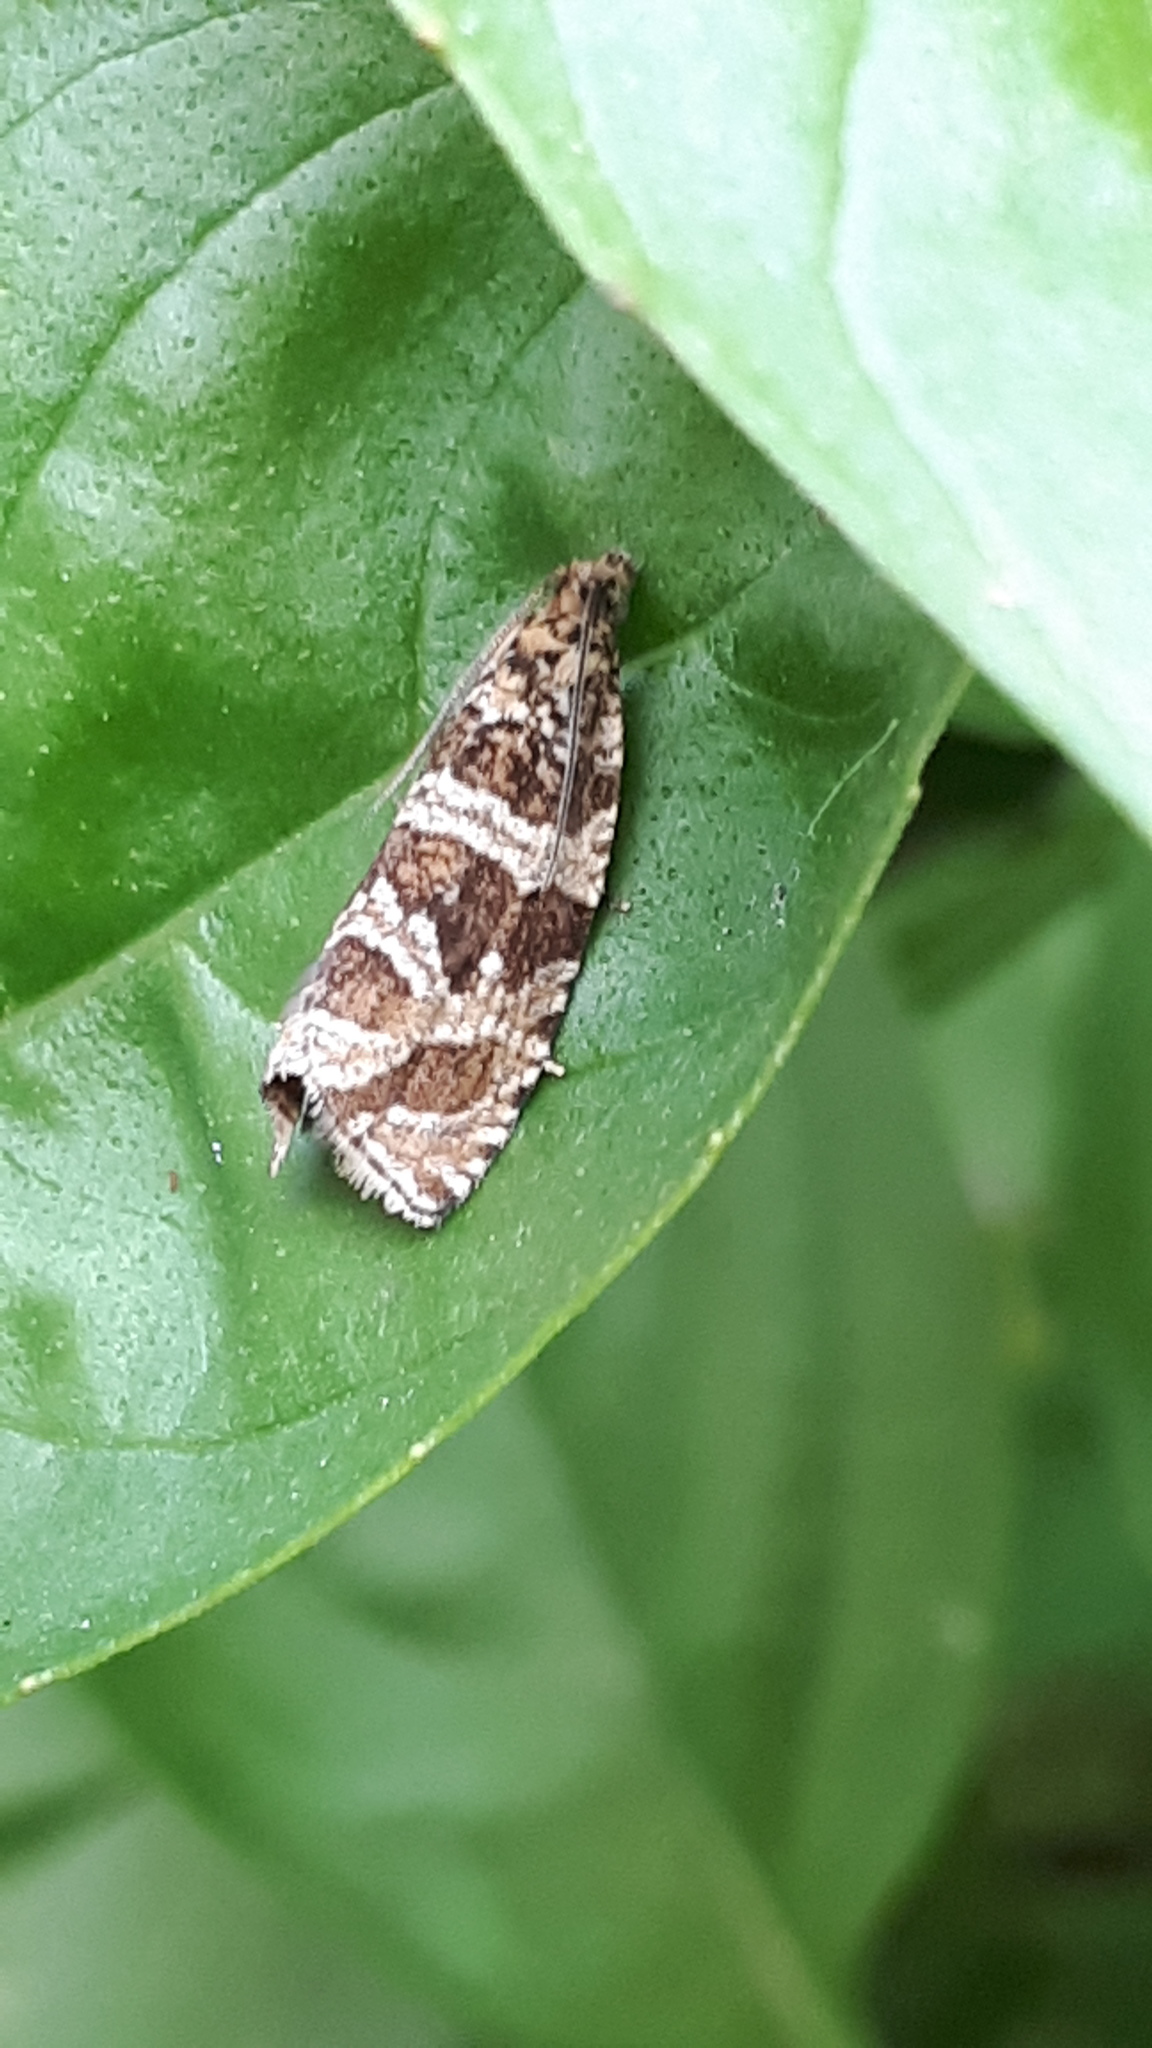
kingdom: Animalia
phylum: Arthropoda
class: Insecta
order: Lepidoptera
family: Tortricidae
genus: Syricoris
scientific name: Syricoris rivulana
